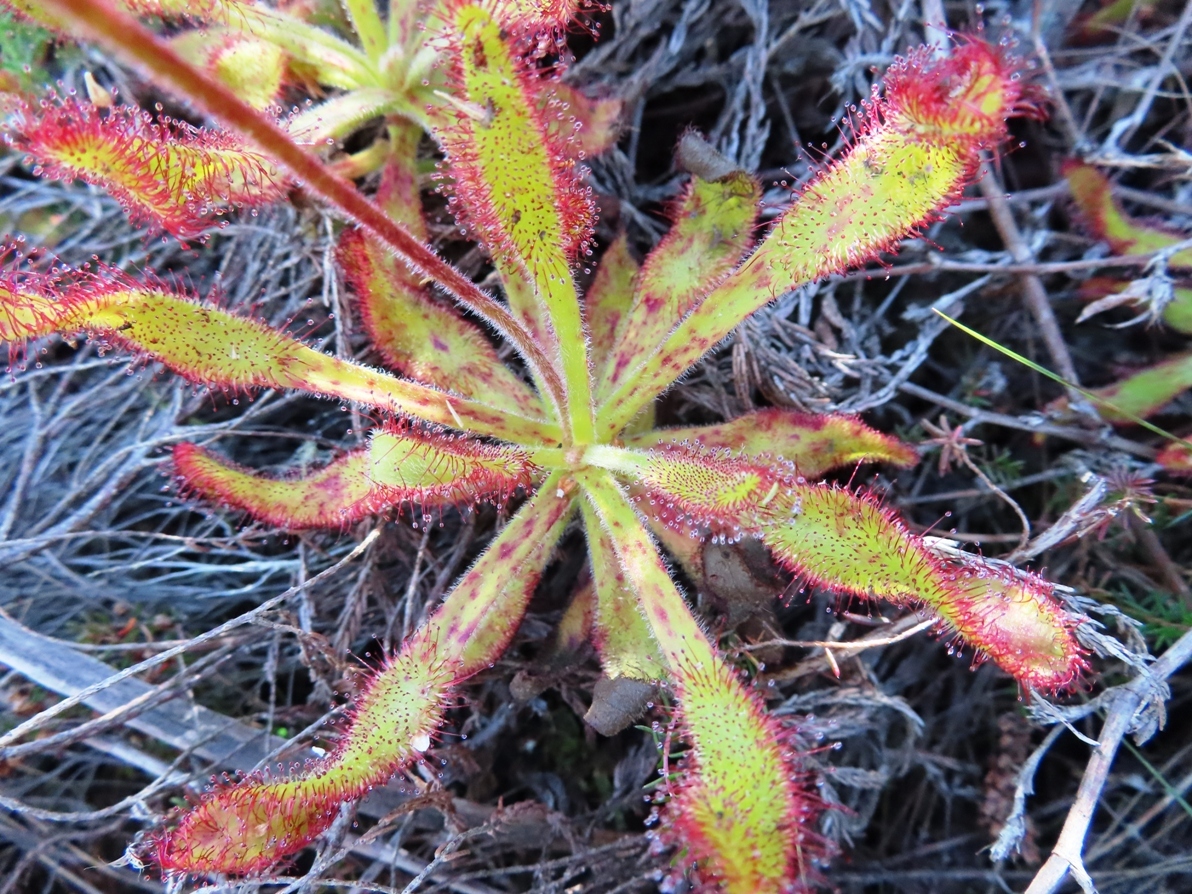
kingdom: Plantae
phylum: Tracheophyta
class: Magnoliopsida
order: Caryophyllales
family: Droseraceae
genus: Drosera
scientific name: Drosera hilaris
